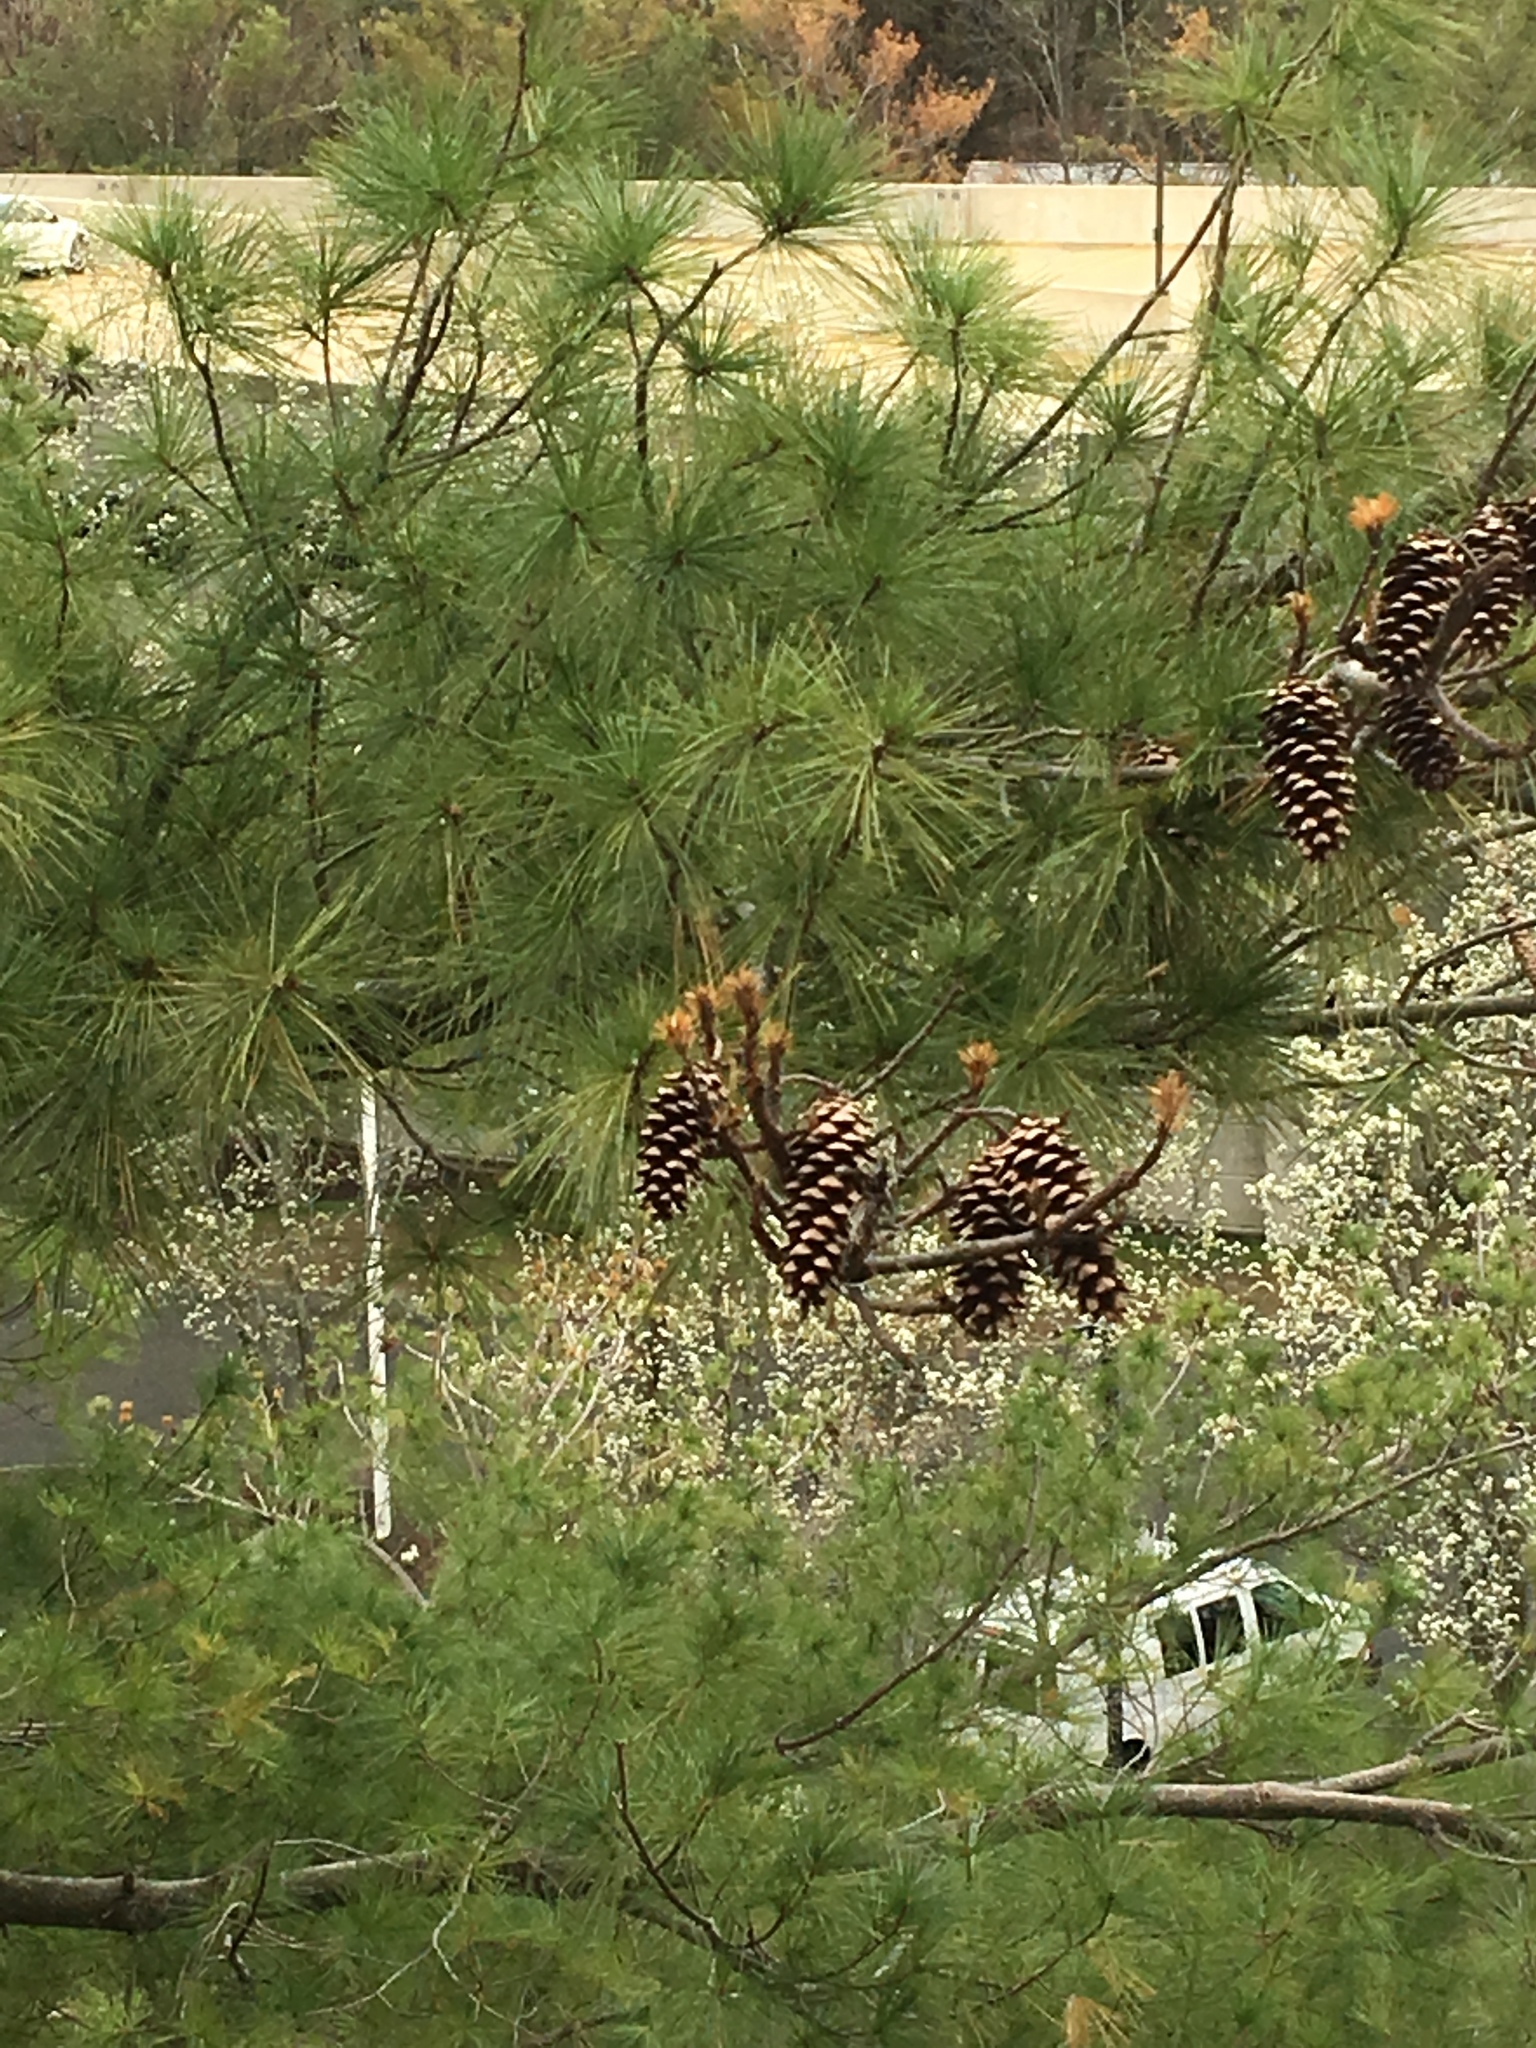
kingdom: Plantae
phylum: Tracheophyta
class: Pinopsida
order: Pinales
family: Pinaceae
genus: Pinus
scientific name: Pinus strobus
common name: Weymouth pine
